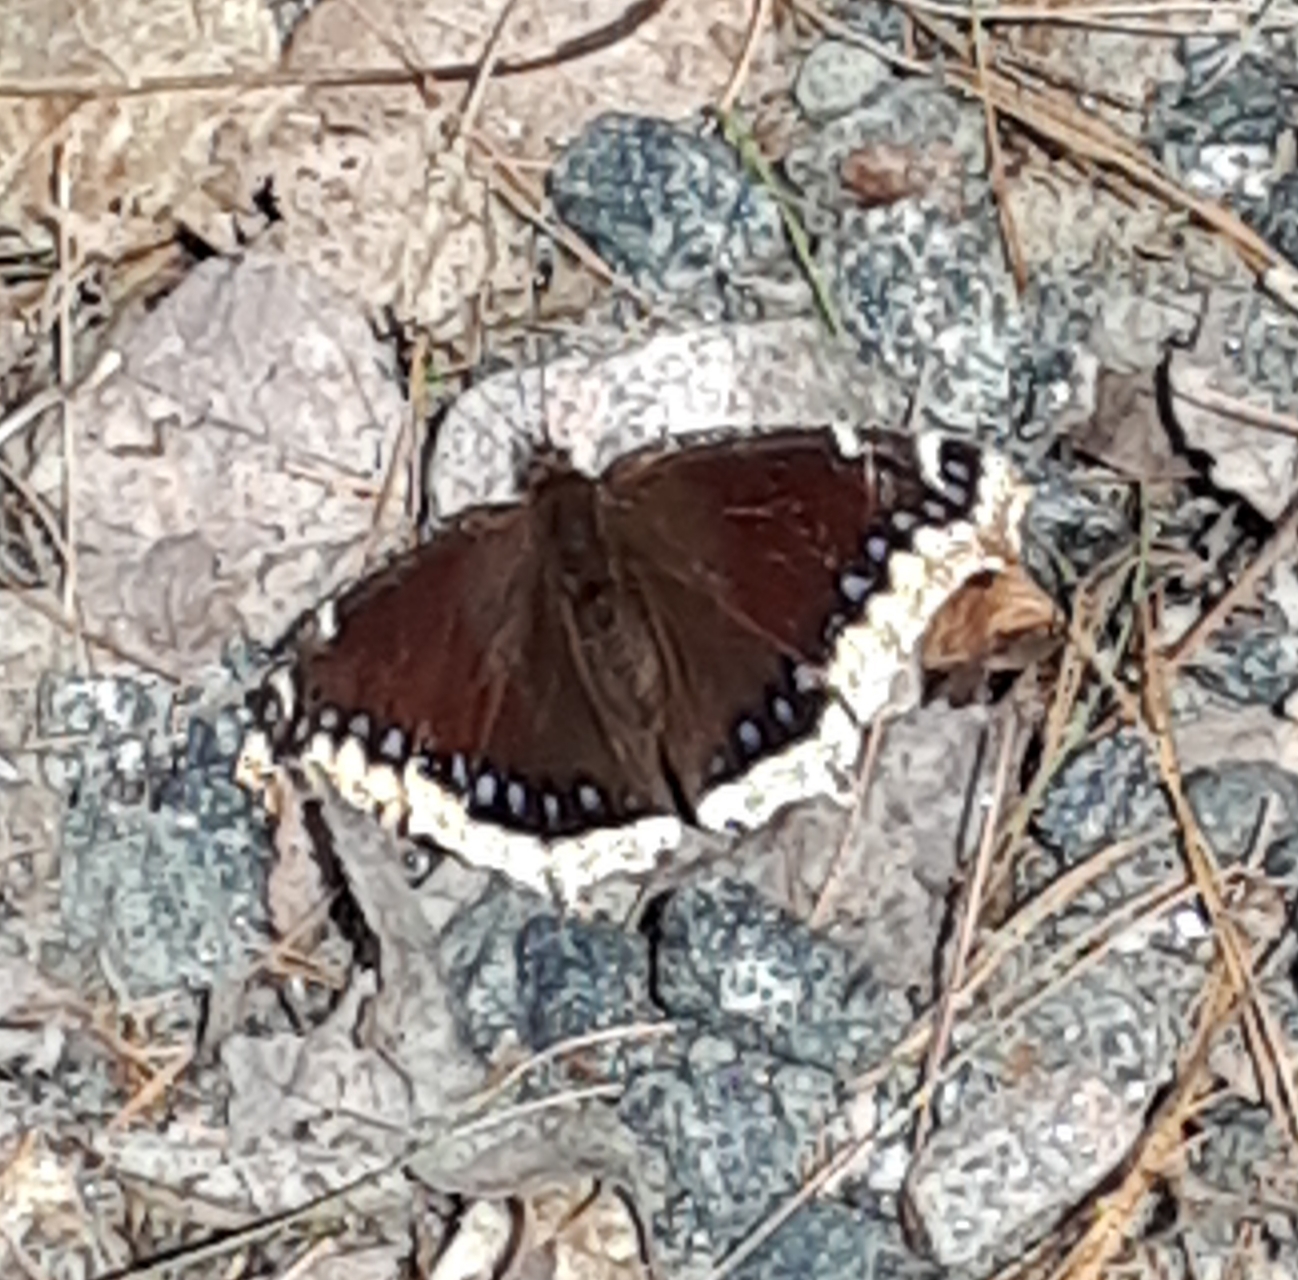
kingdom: Animalia
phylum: Arthropoda
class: Insecta
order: Lepidoptera
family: Nymphalidae
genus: Nymphalis
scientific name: Nymphalis antiopa
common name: Camberwell beauty
